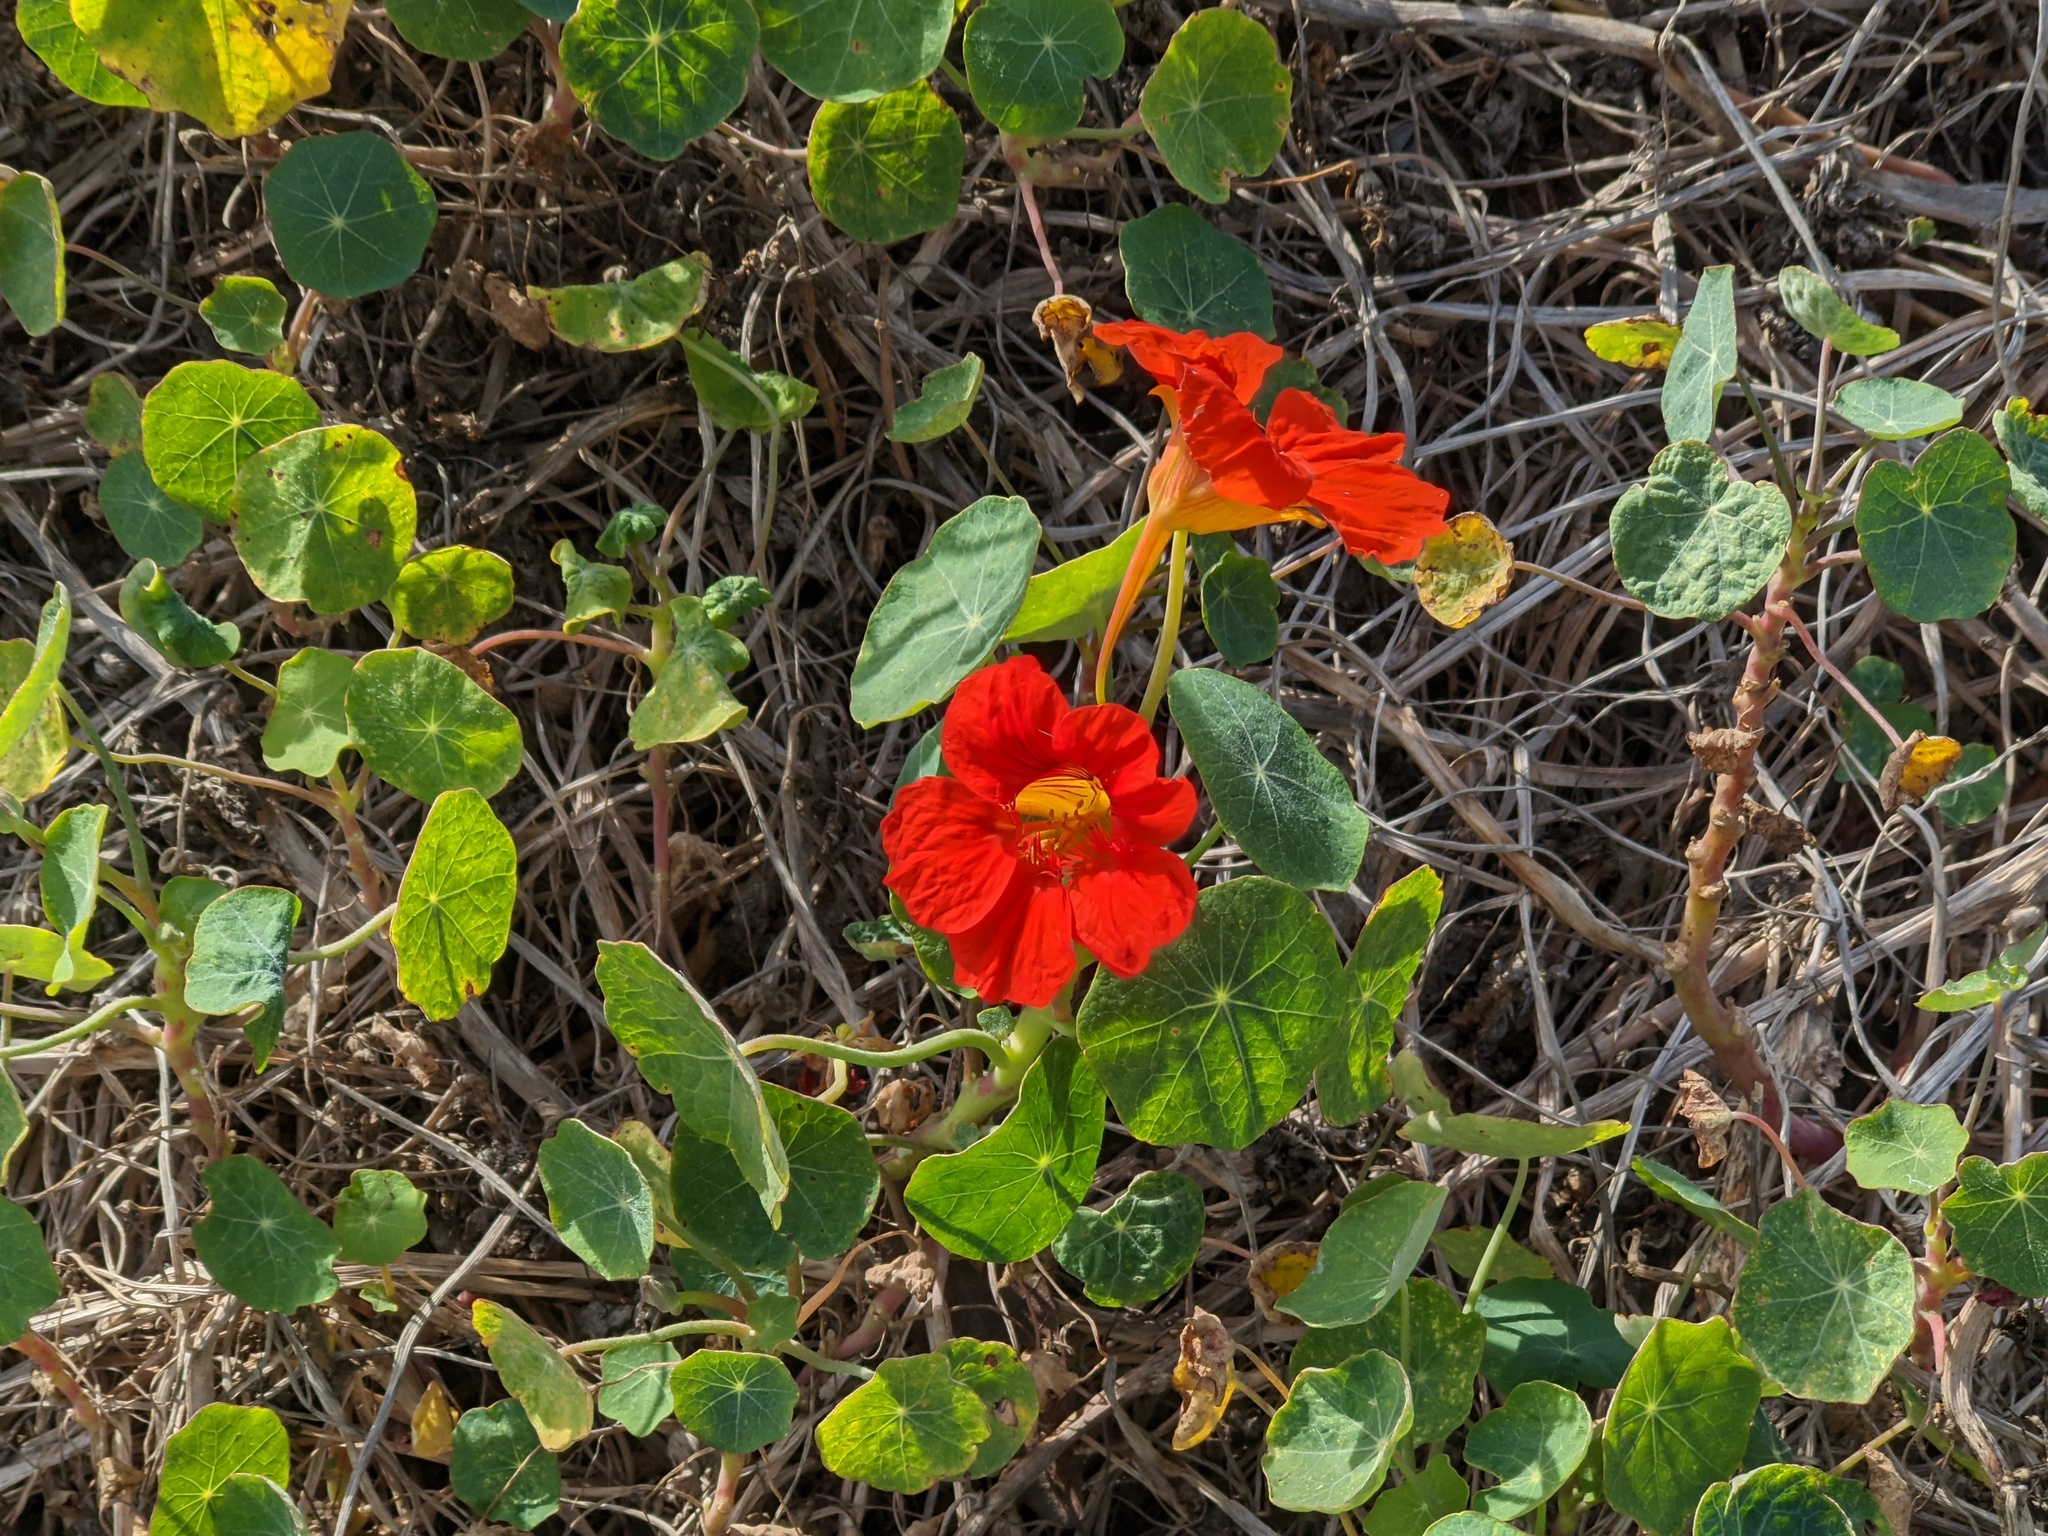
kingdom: Plantae
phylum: Tracheophyta
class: Magnoliopsida
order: Brassicales
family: Tropaeolaceae
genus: Tropaeolum
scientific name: Tropaeolum majus
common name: Nasturtium
